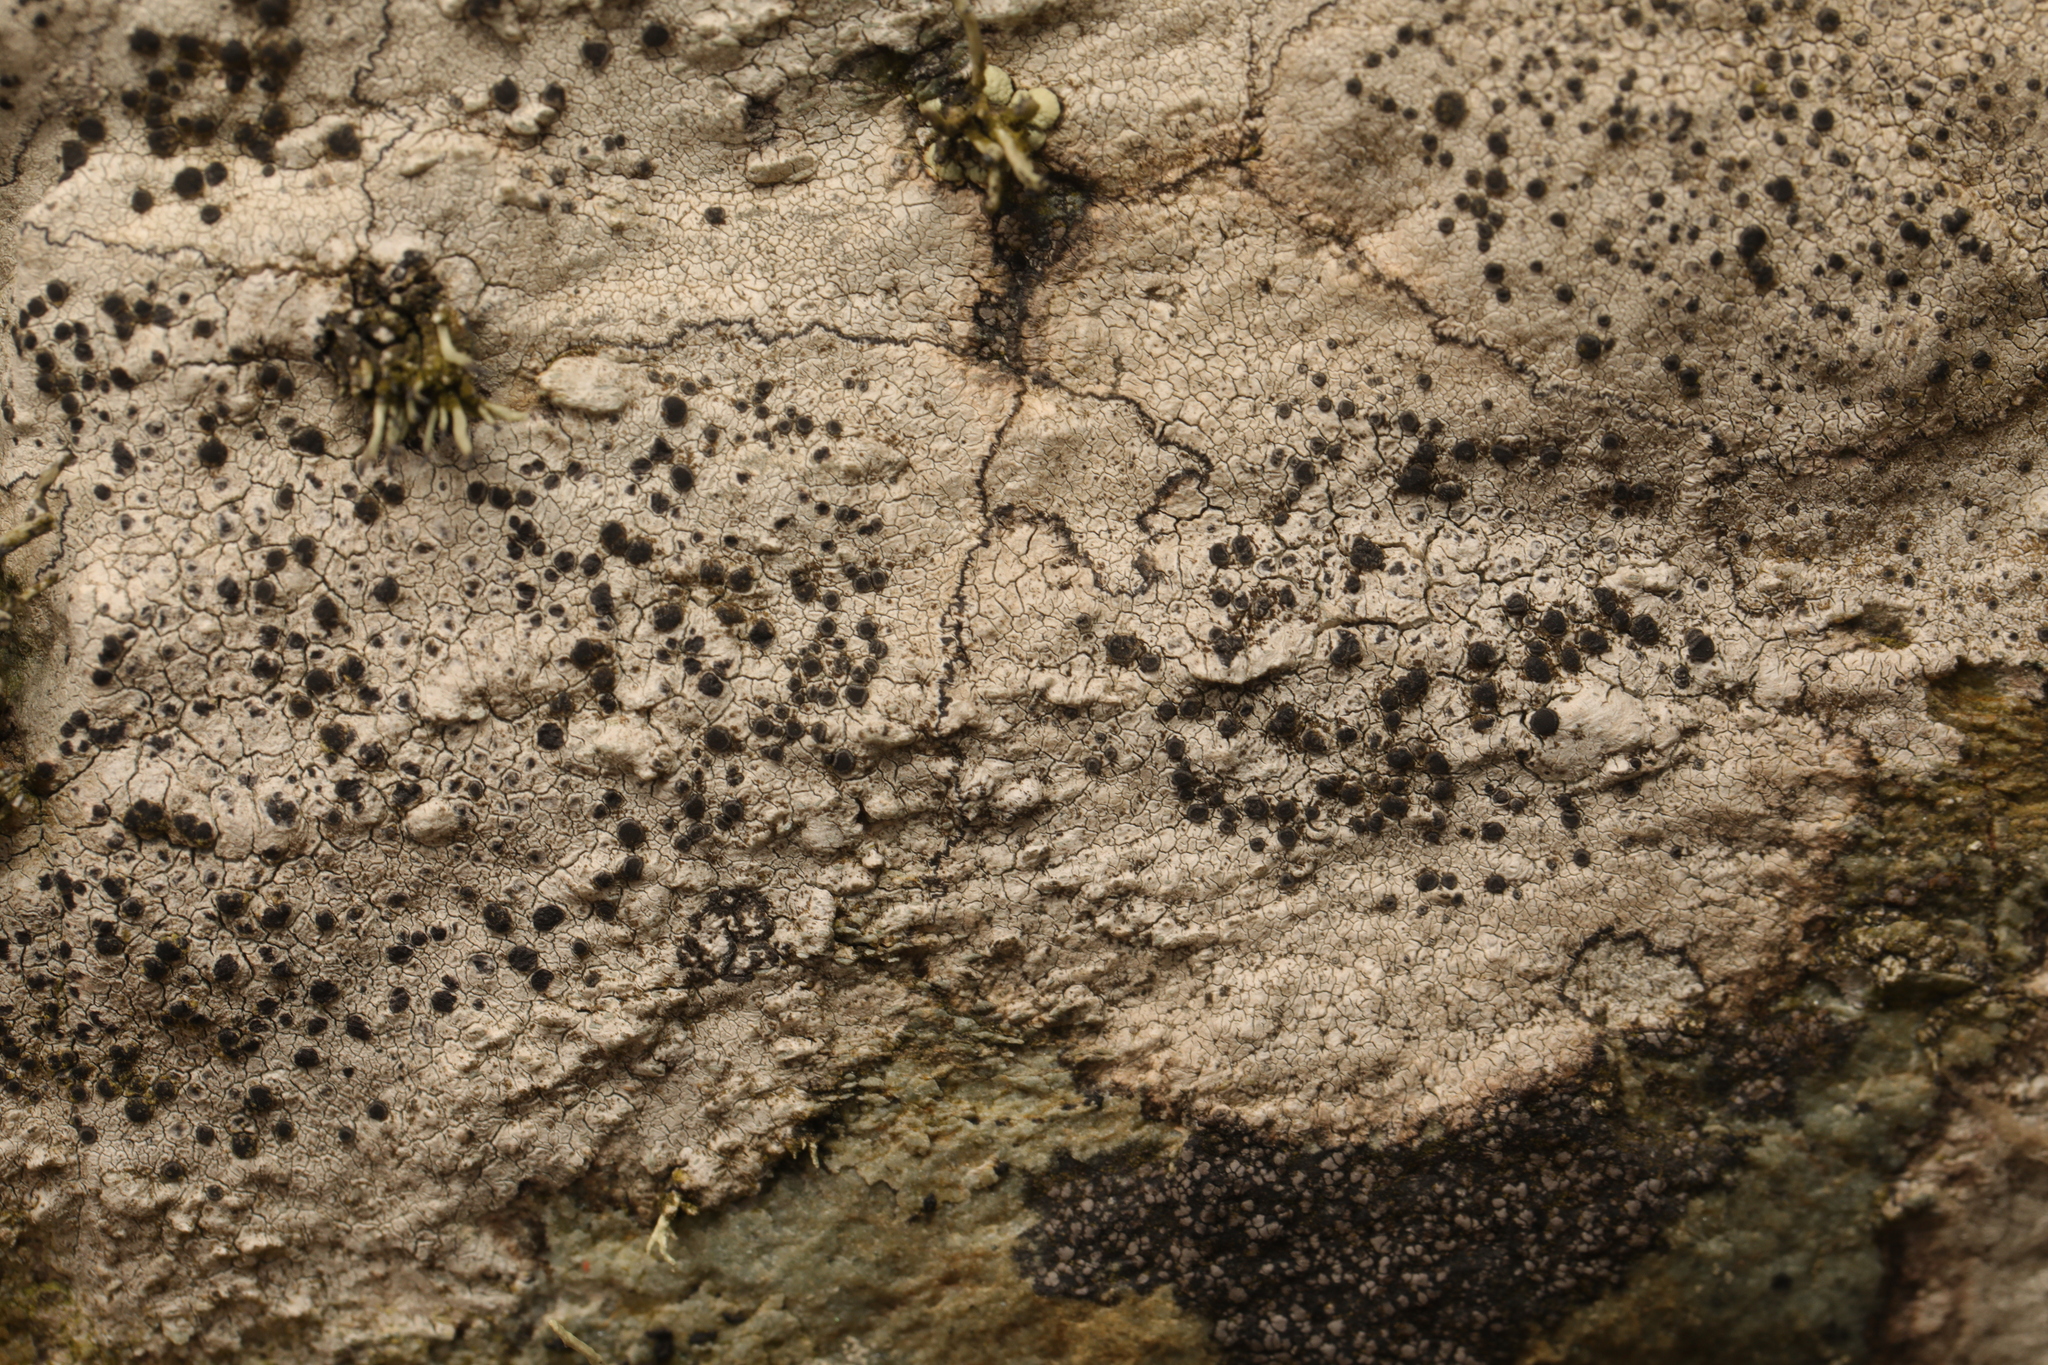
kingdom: Fungi
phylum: Ascomycota
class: Lecanoromycetes
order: Caliciales
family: Caliciaceae
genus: Buellia
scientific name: Buellia subdisciformis
